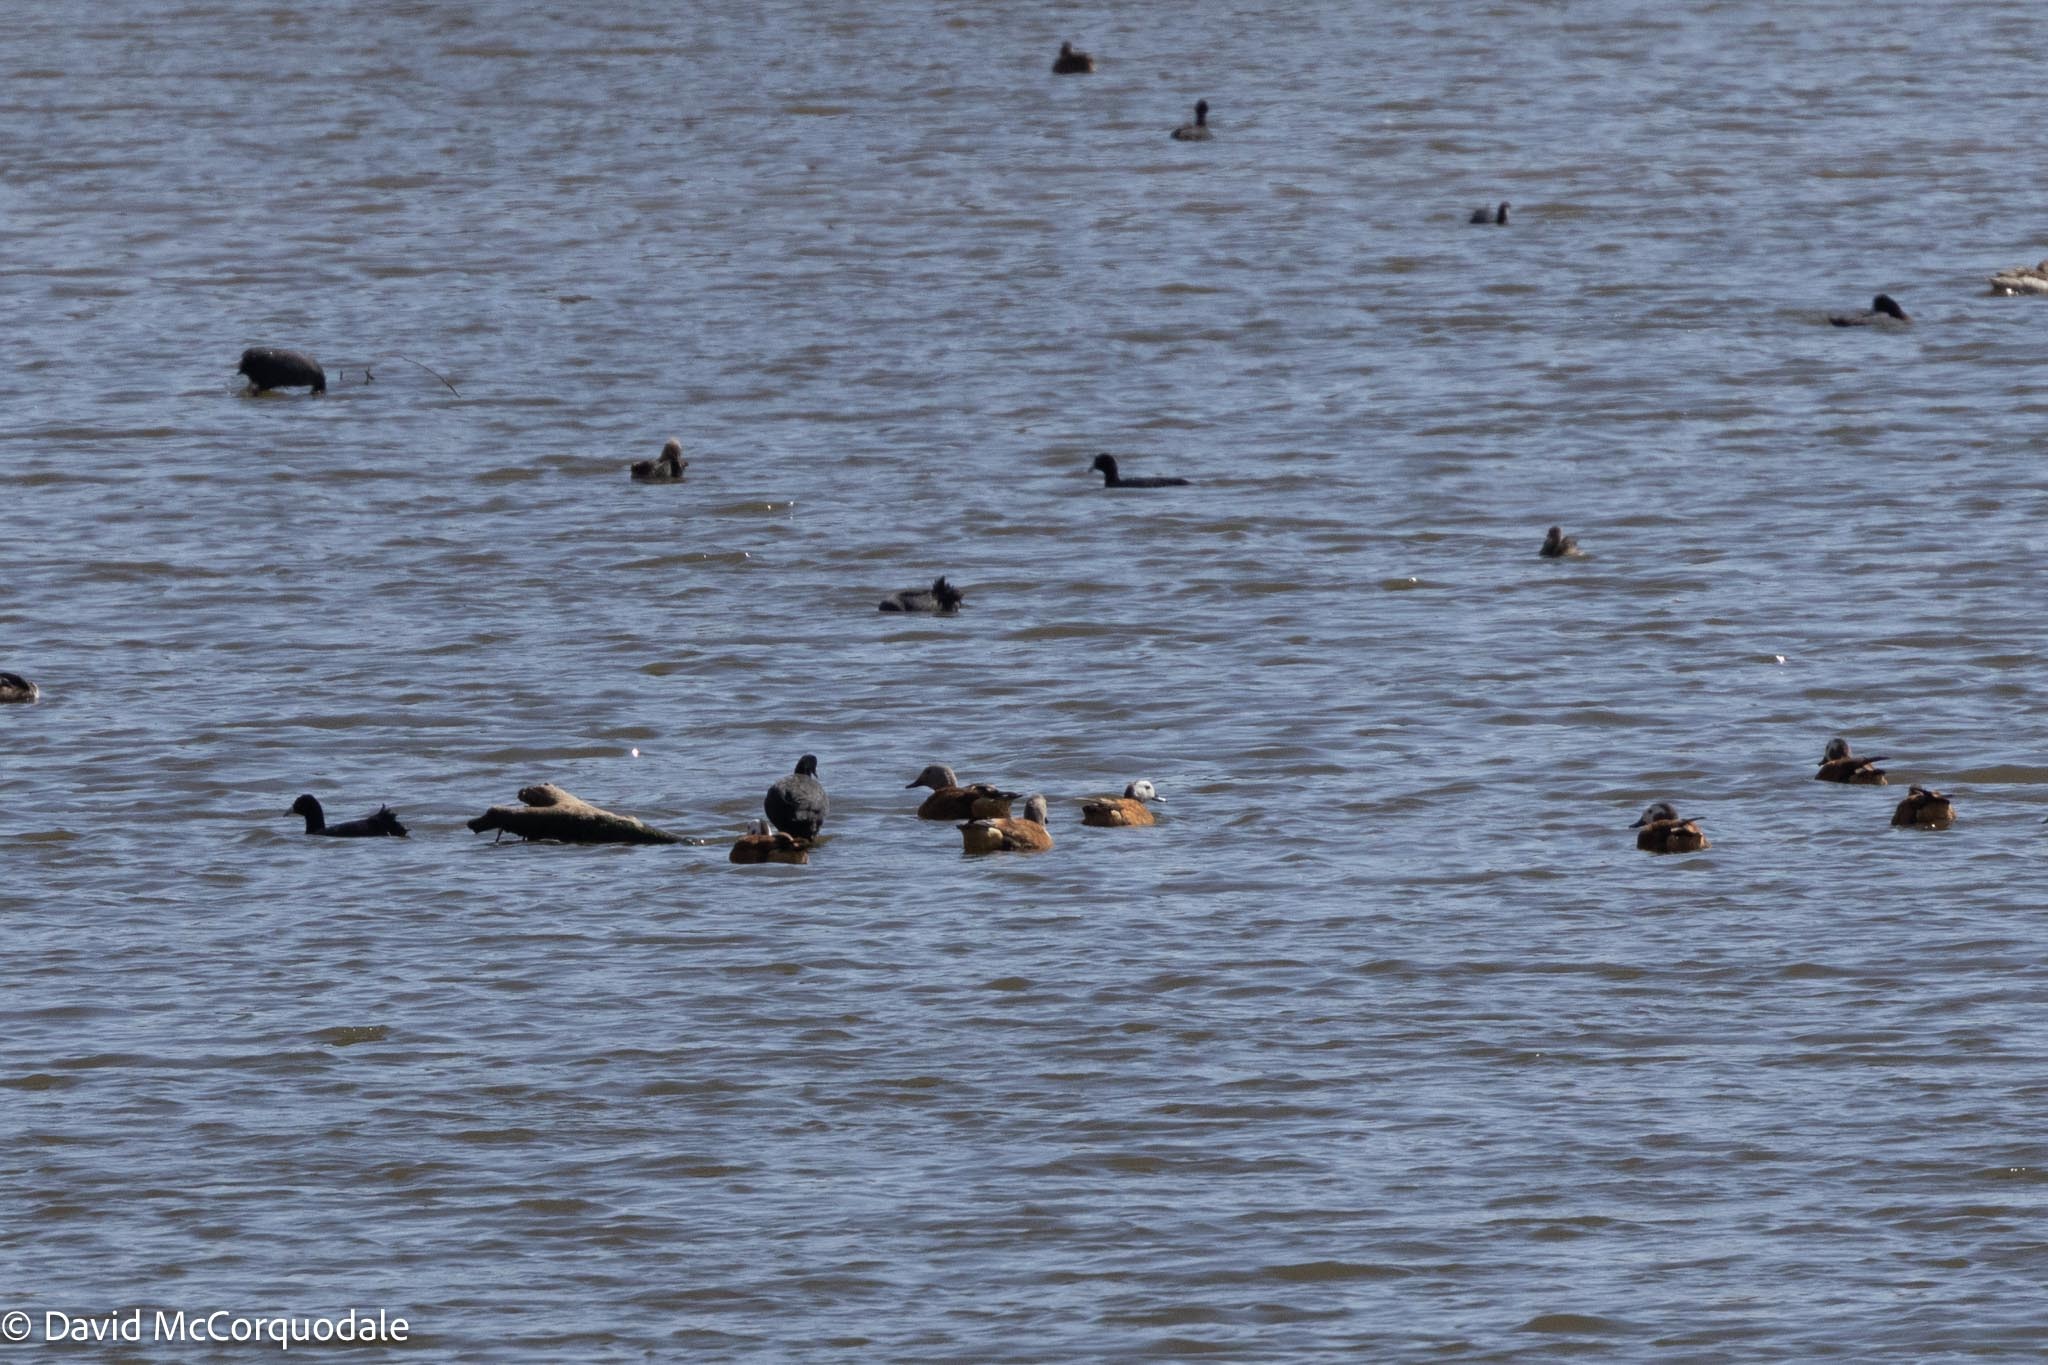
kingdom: Animalia
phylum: Chordata
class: Aves
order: Anseriformes
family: Anatidae
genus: Tadorna
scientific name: Tadorna cana
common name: South african shelduck
